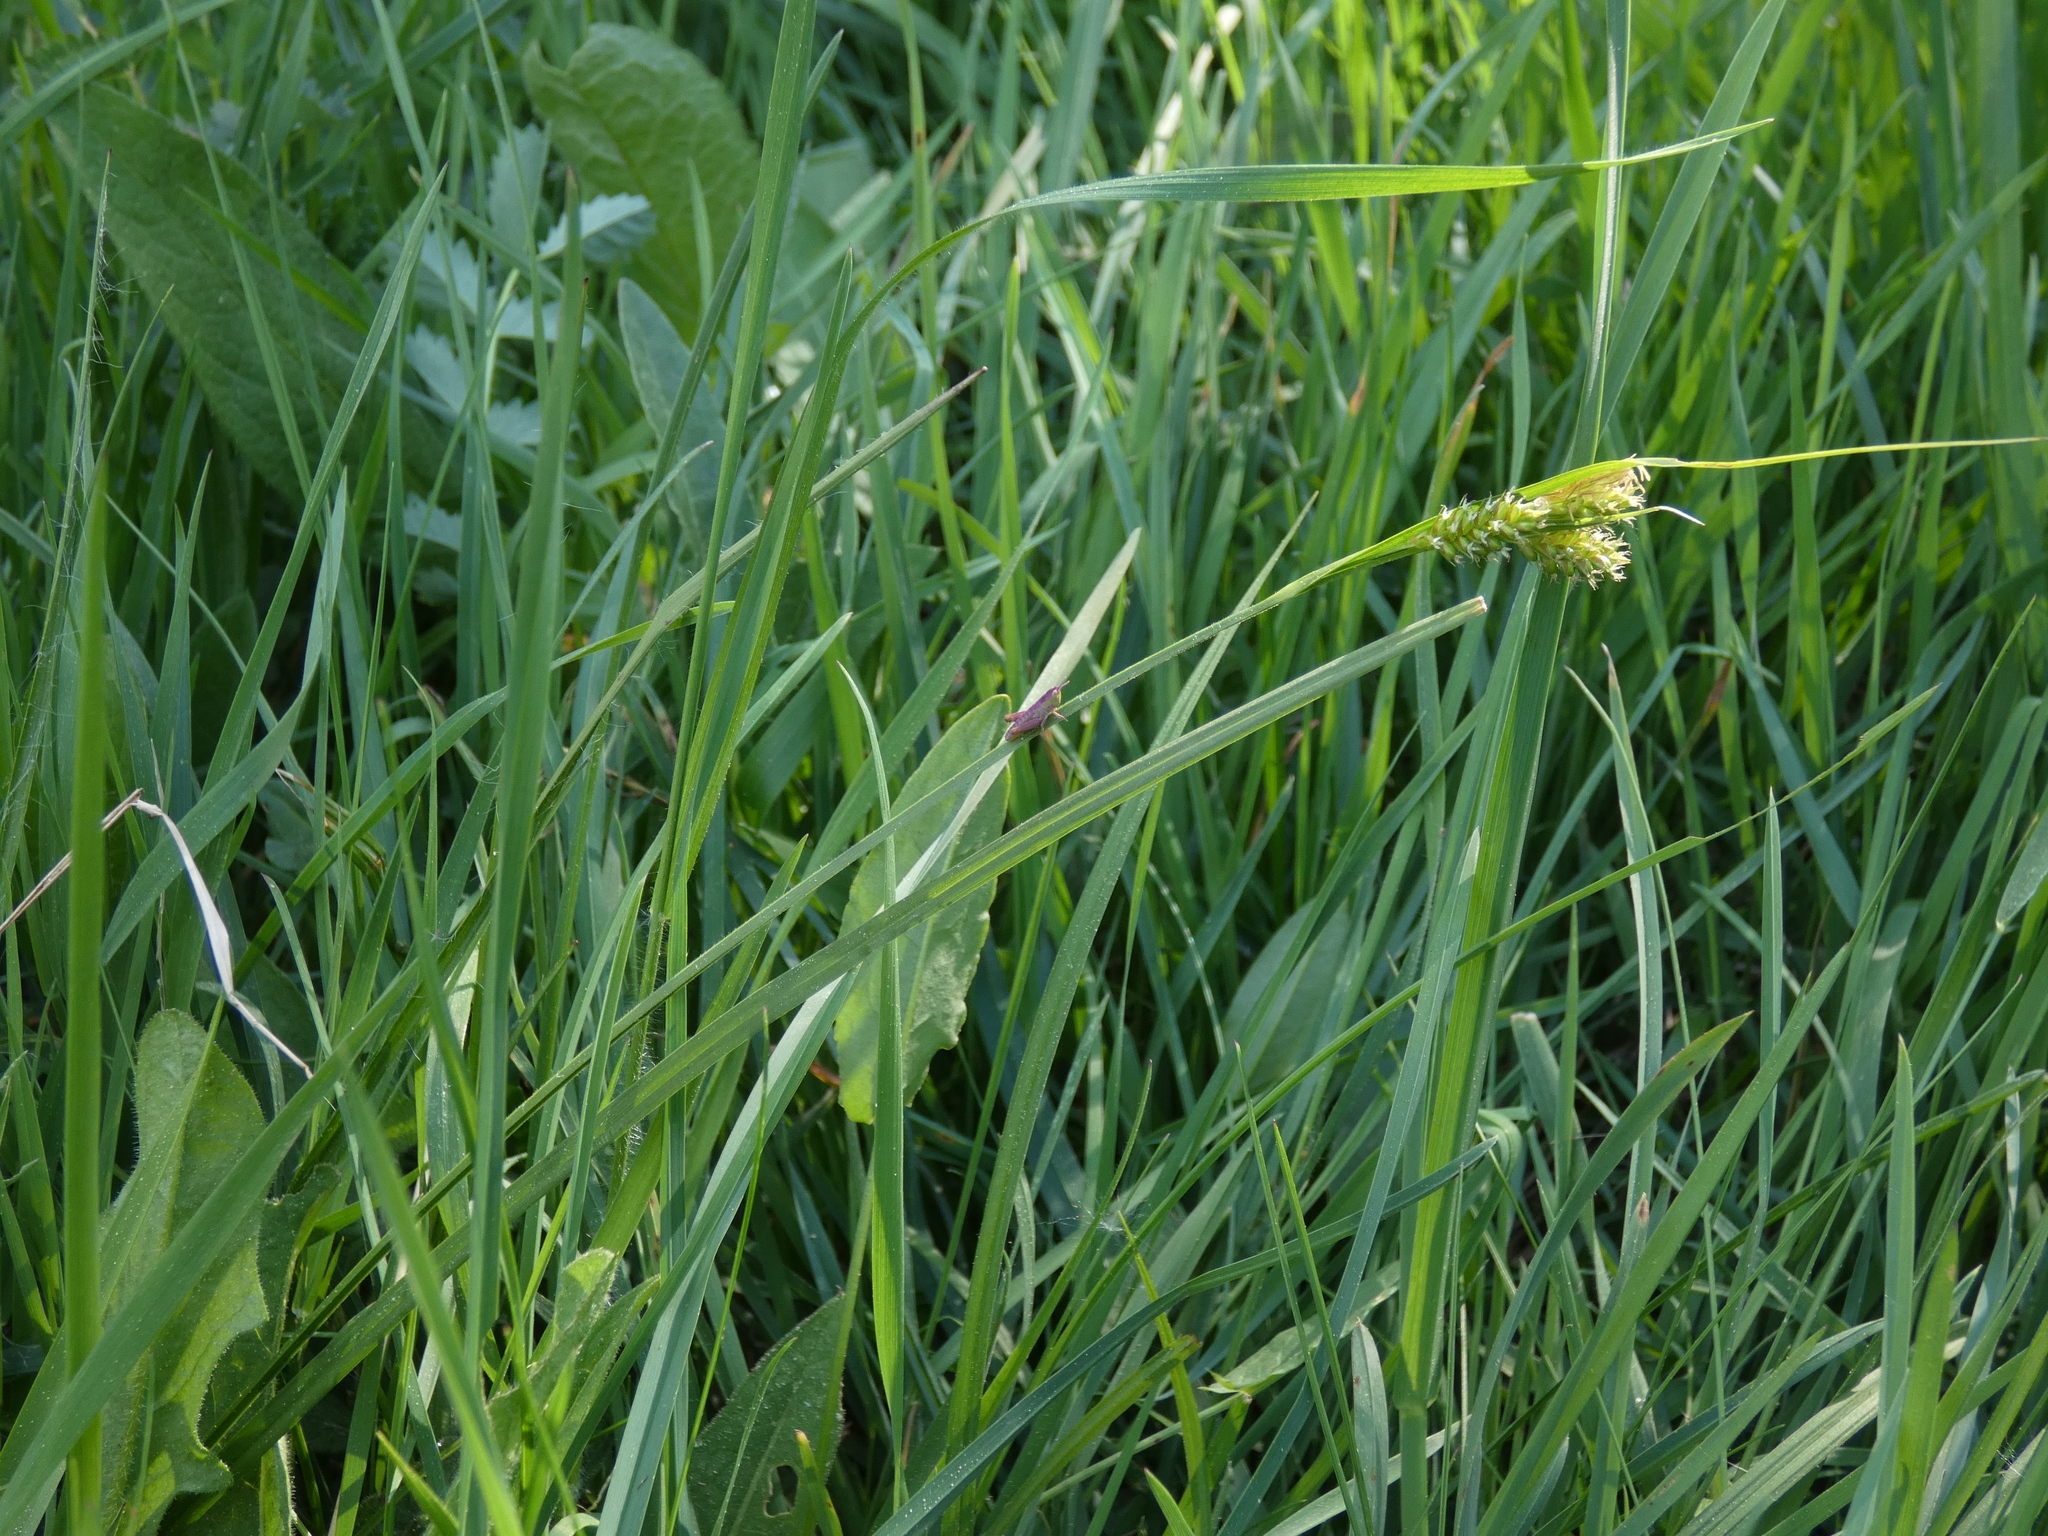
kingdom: Plantae
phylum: Tracheophyta
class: Liliopsida
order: Poales
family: Cyperaceae
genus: Carex
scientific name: Carex pallescens
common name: Pale sedge
